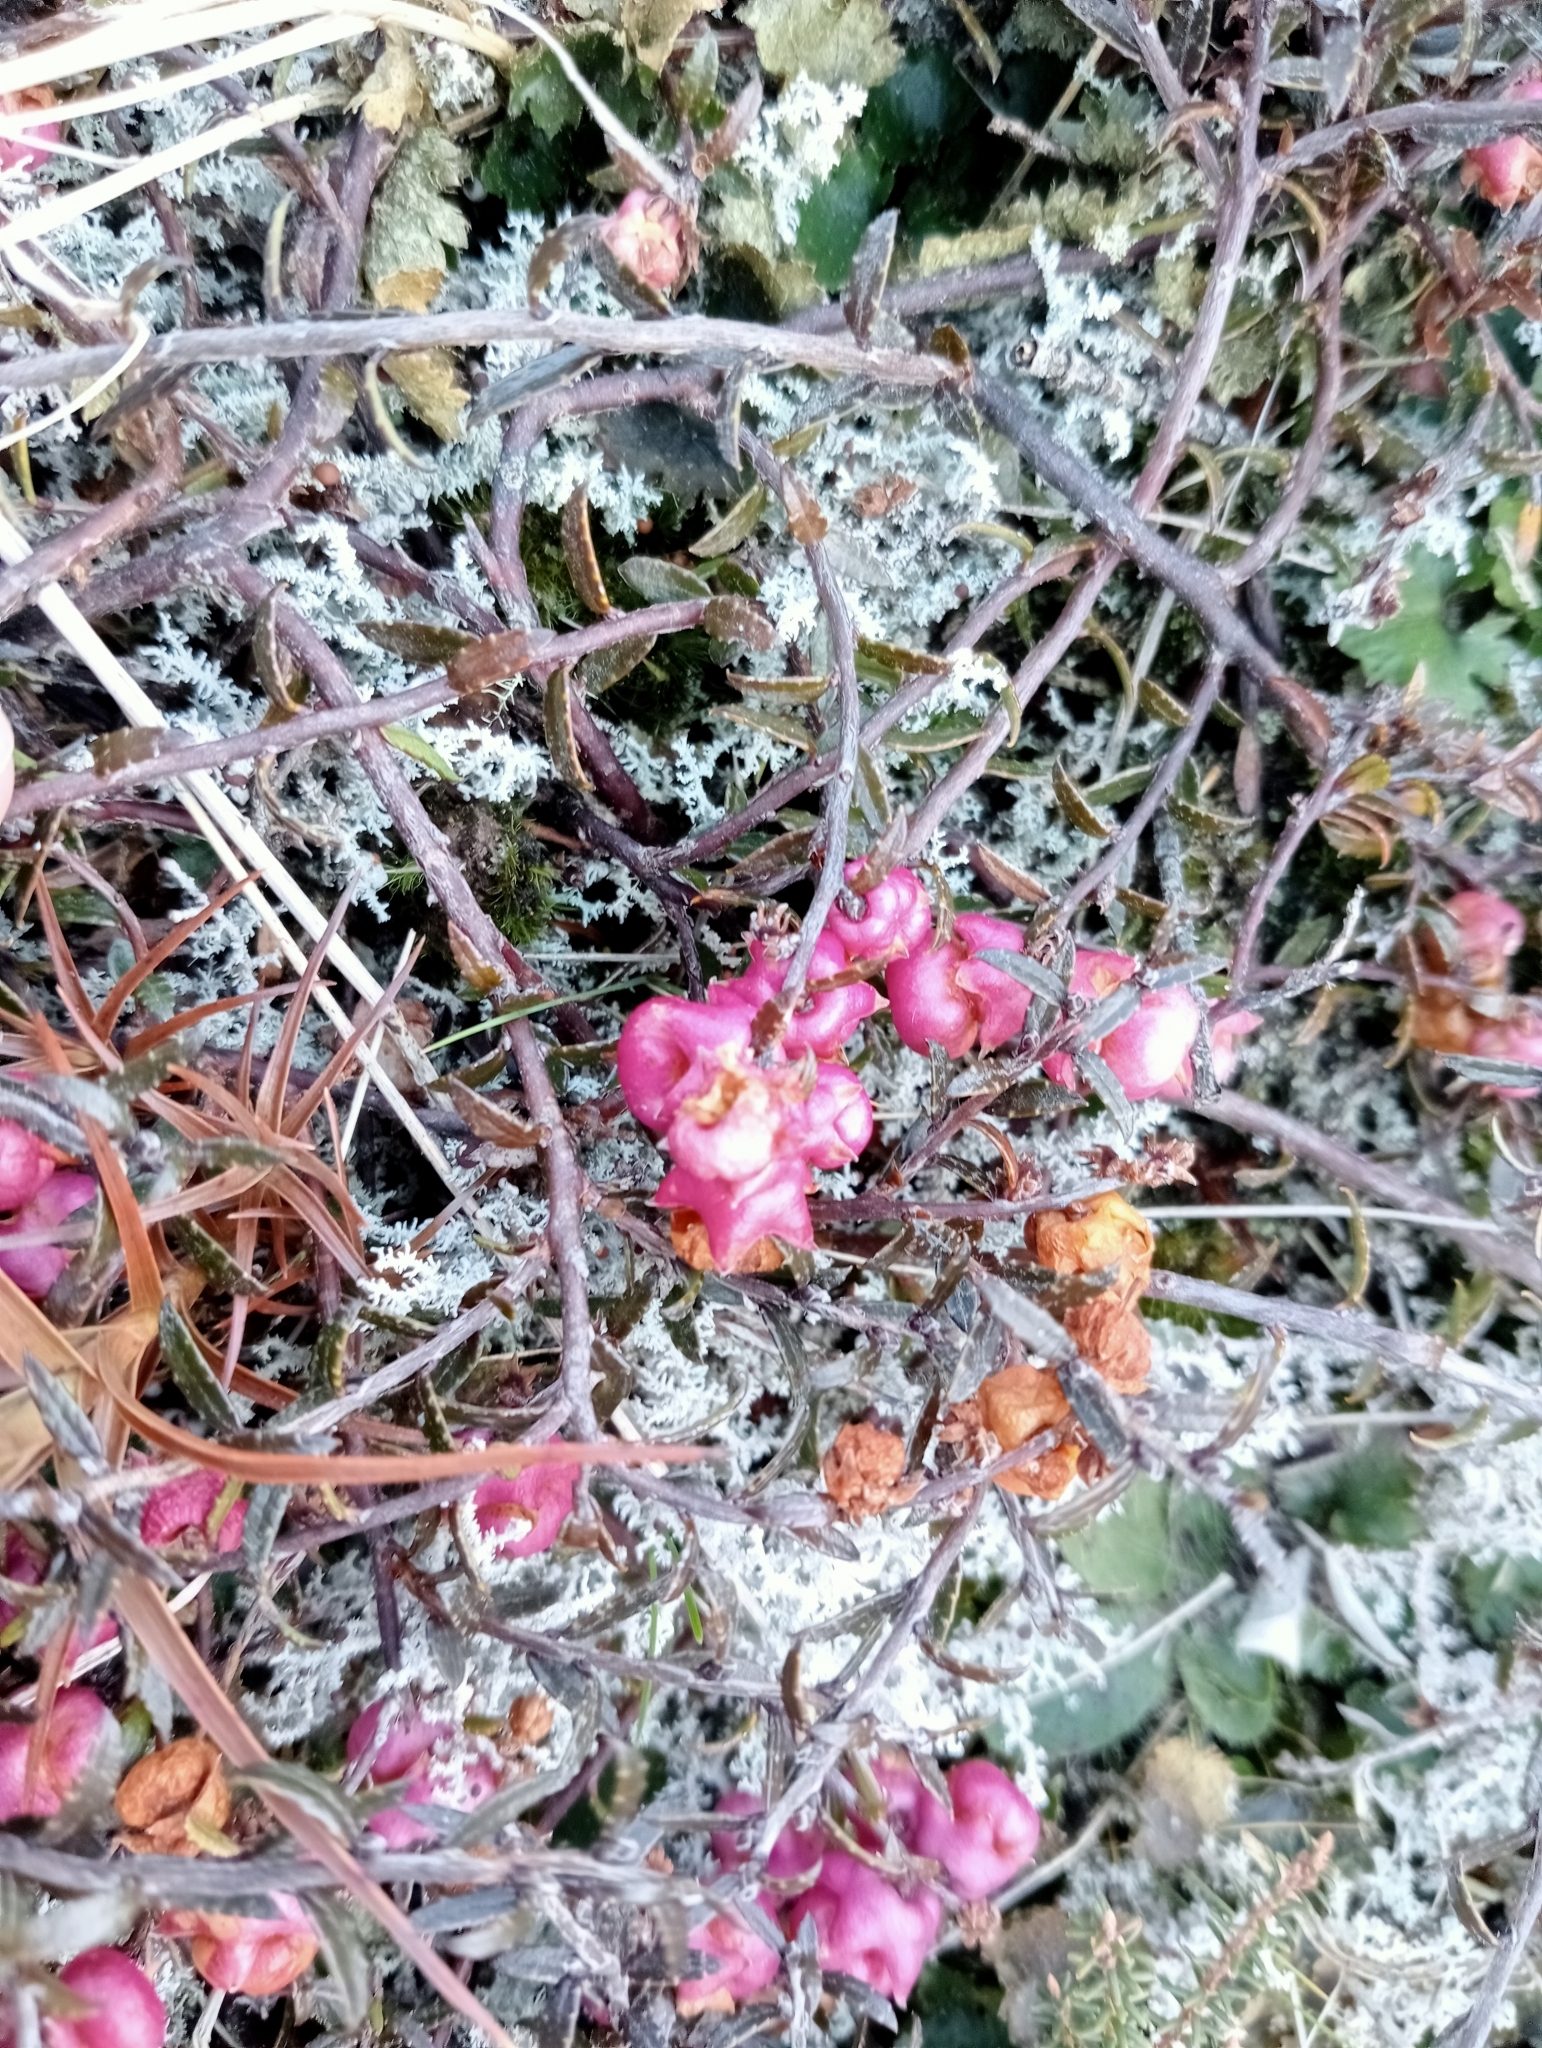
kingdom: Plantae
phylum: Tracheophyta
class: Magnoliopsida
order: Ericales
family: Ericaceae
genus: Gaultheria
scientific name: Gaultheria macrostigma
